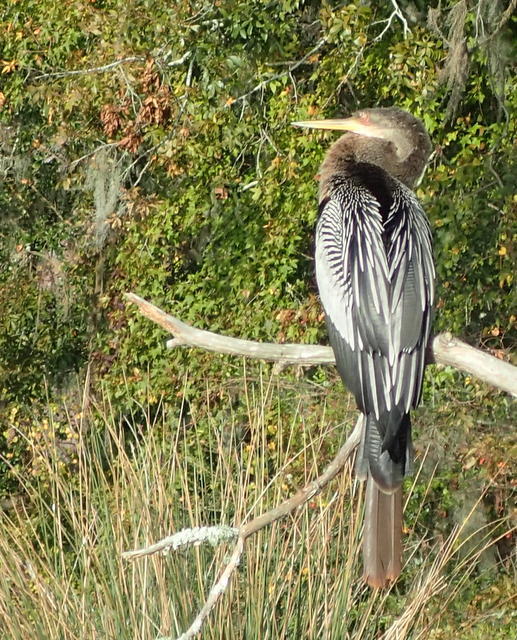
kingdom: Animalia
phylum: Chordata
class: Aves
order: Suliformes
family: Anhingidae
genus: Anhinga
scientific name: Anhinga anhinga
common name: Anhinga
